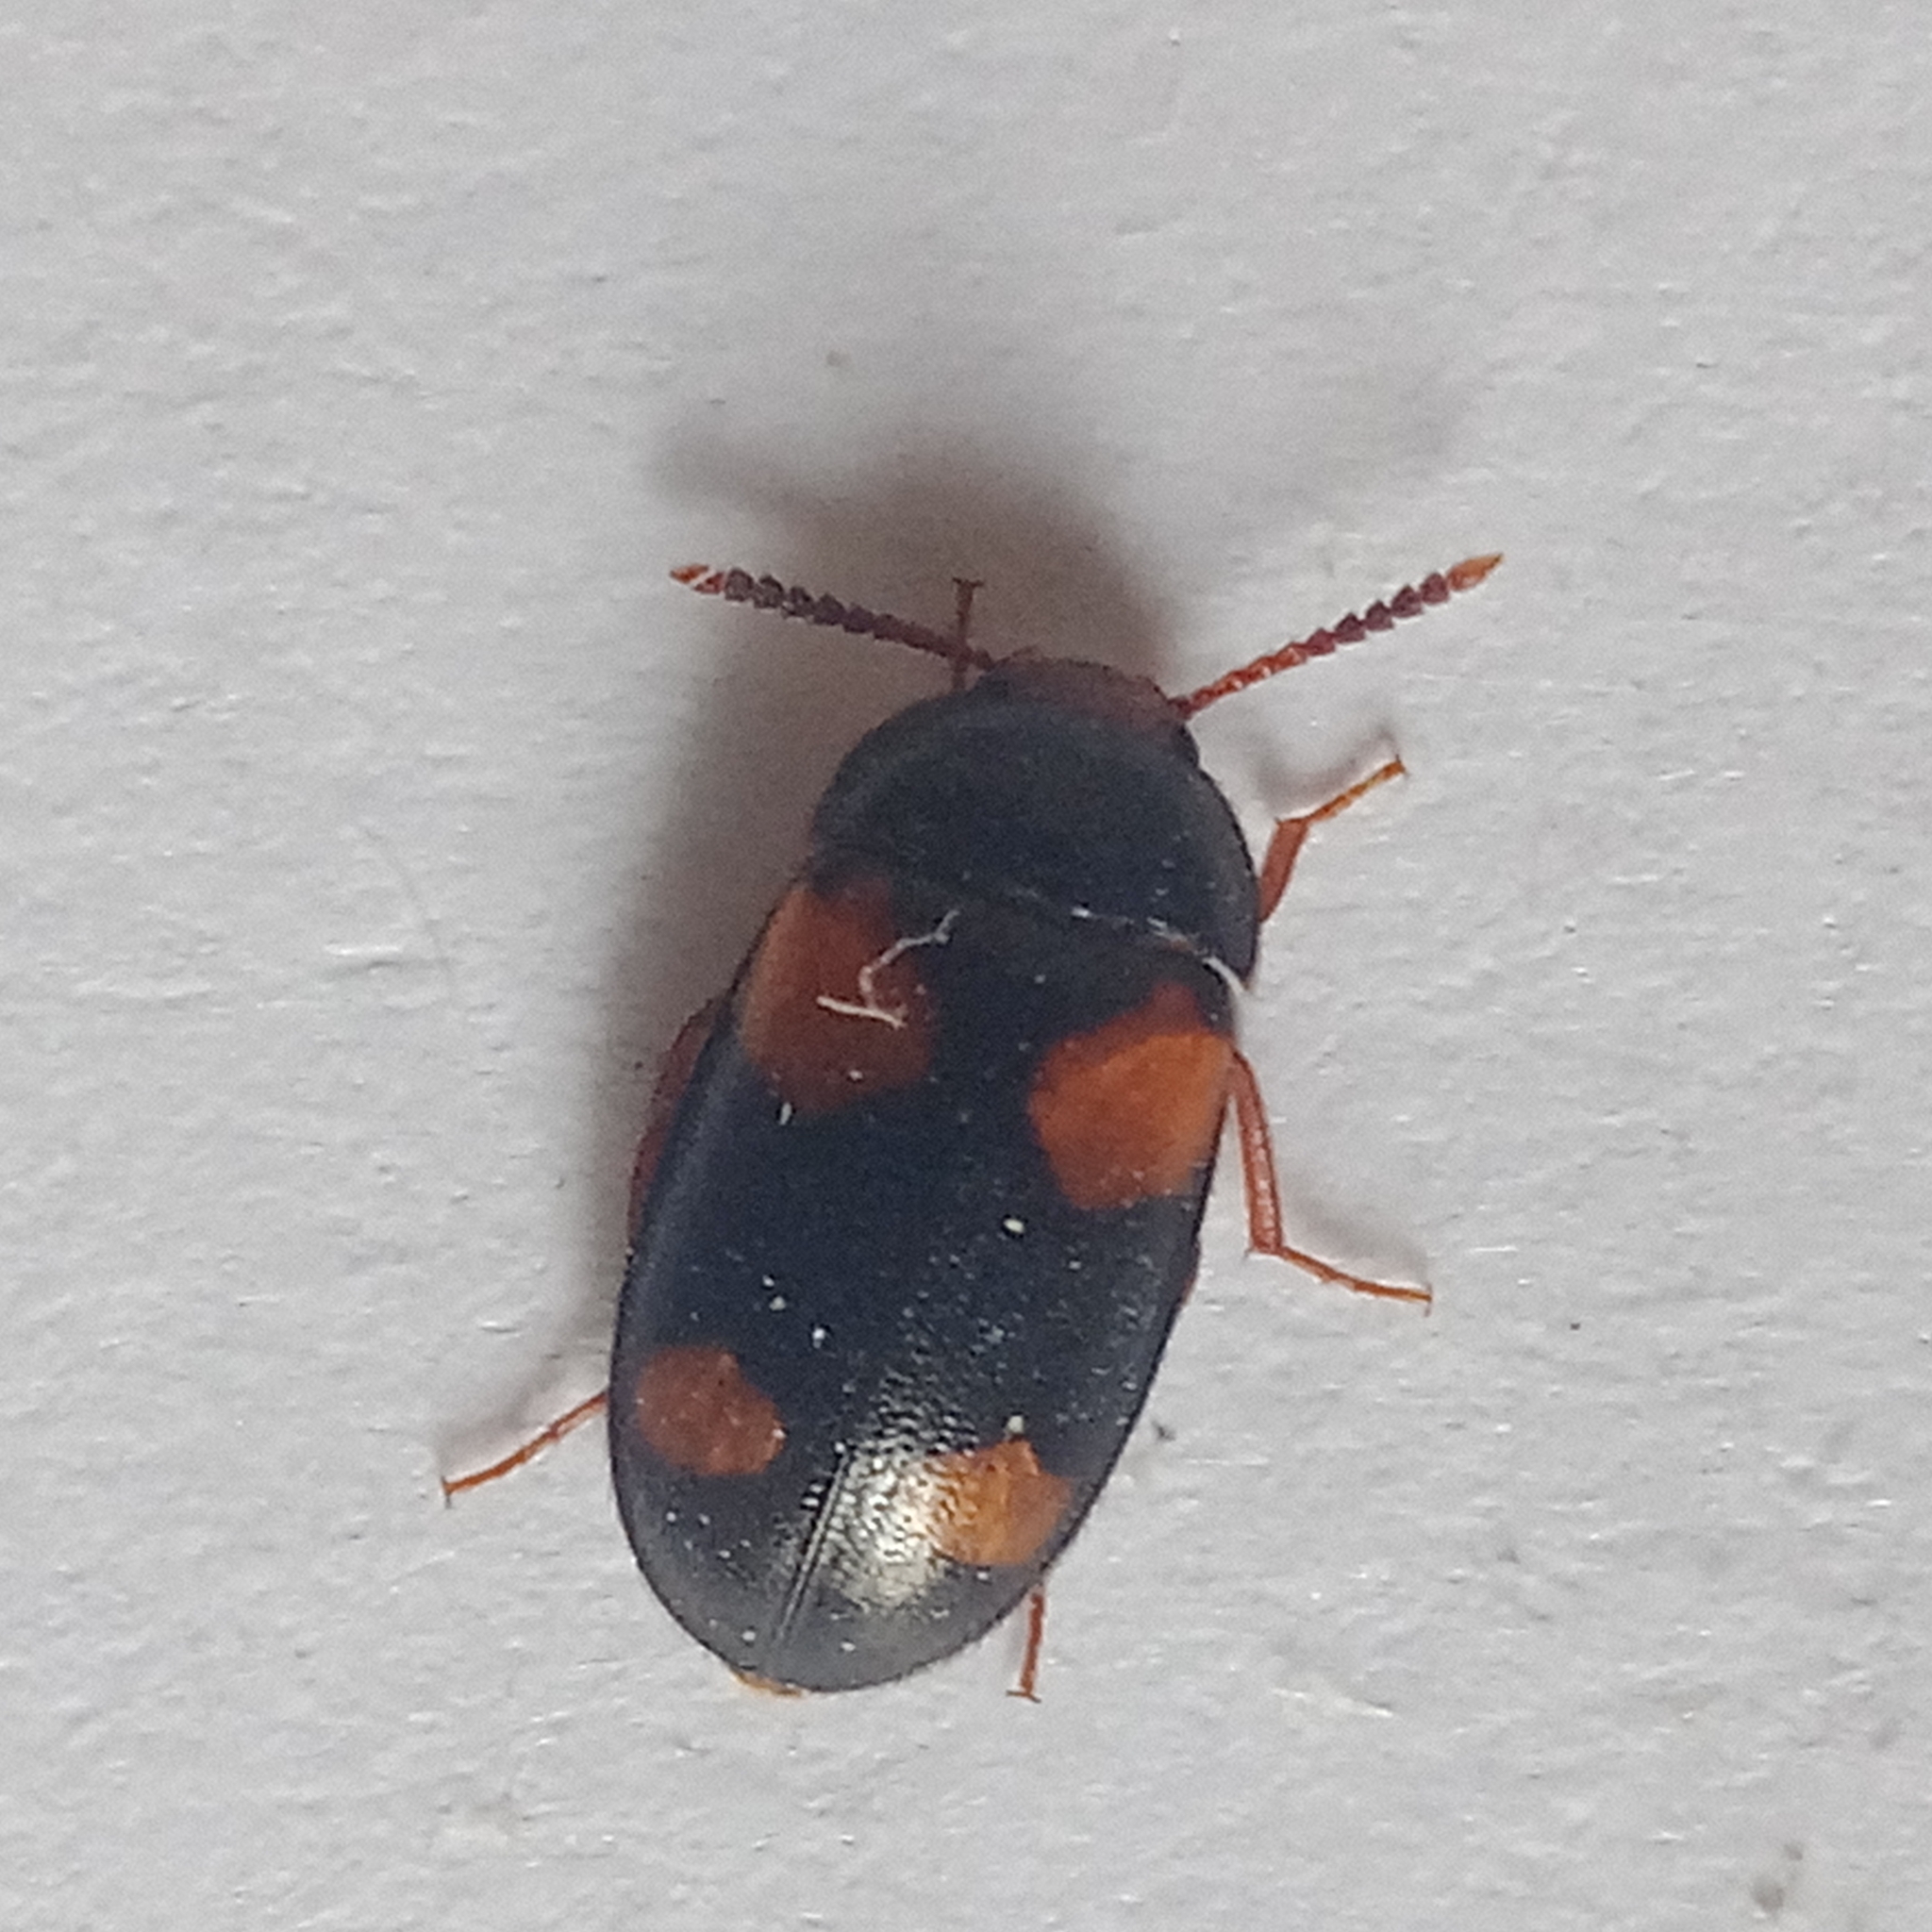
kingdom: Animalia
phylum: Arthropoda
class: Insecta
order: Coleoptera
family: Mycetophagidae
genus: Mycetophagus
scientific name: Mycetophagus quadripustulatus
